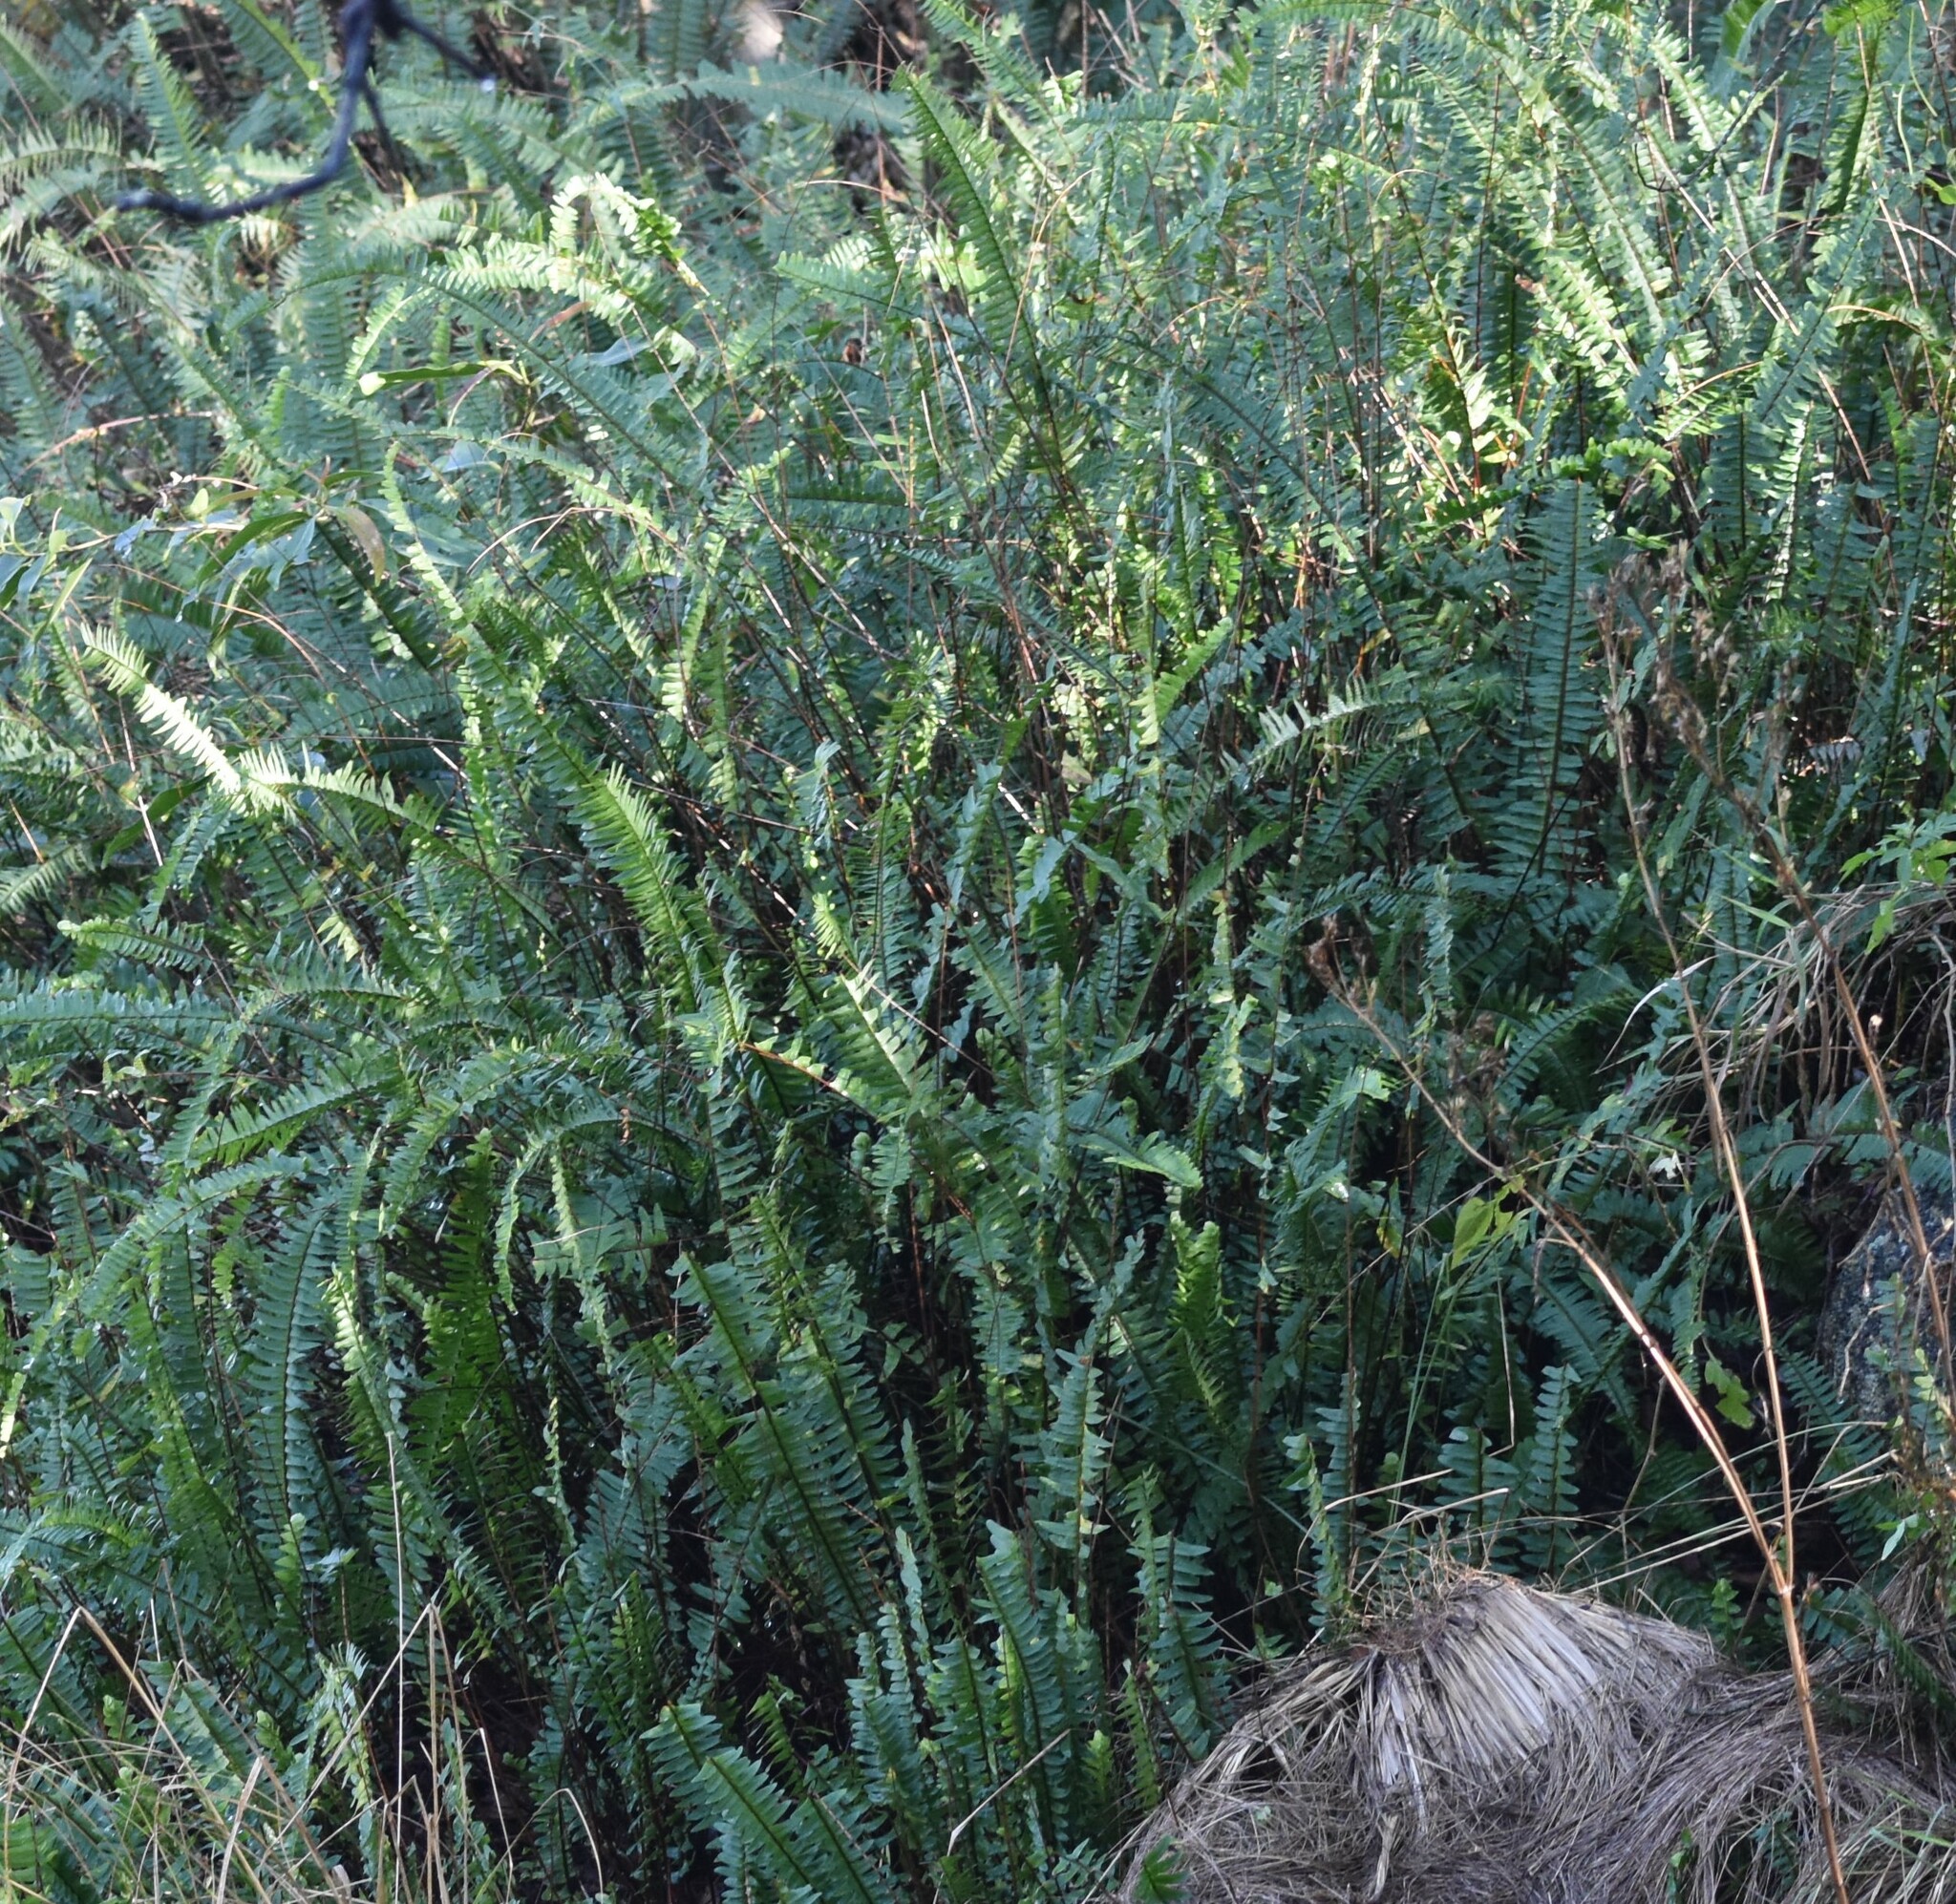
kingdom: Plantae
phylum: Tracheophyta
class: Polypodiopsida
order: Polypodiales
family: Nephrolepidaceae
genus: Nephrolepis
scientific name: Nephrolepis cordifolia
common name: Narrow swordfern
